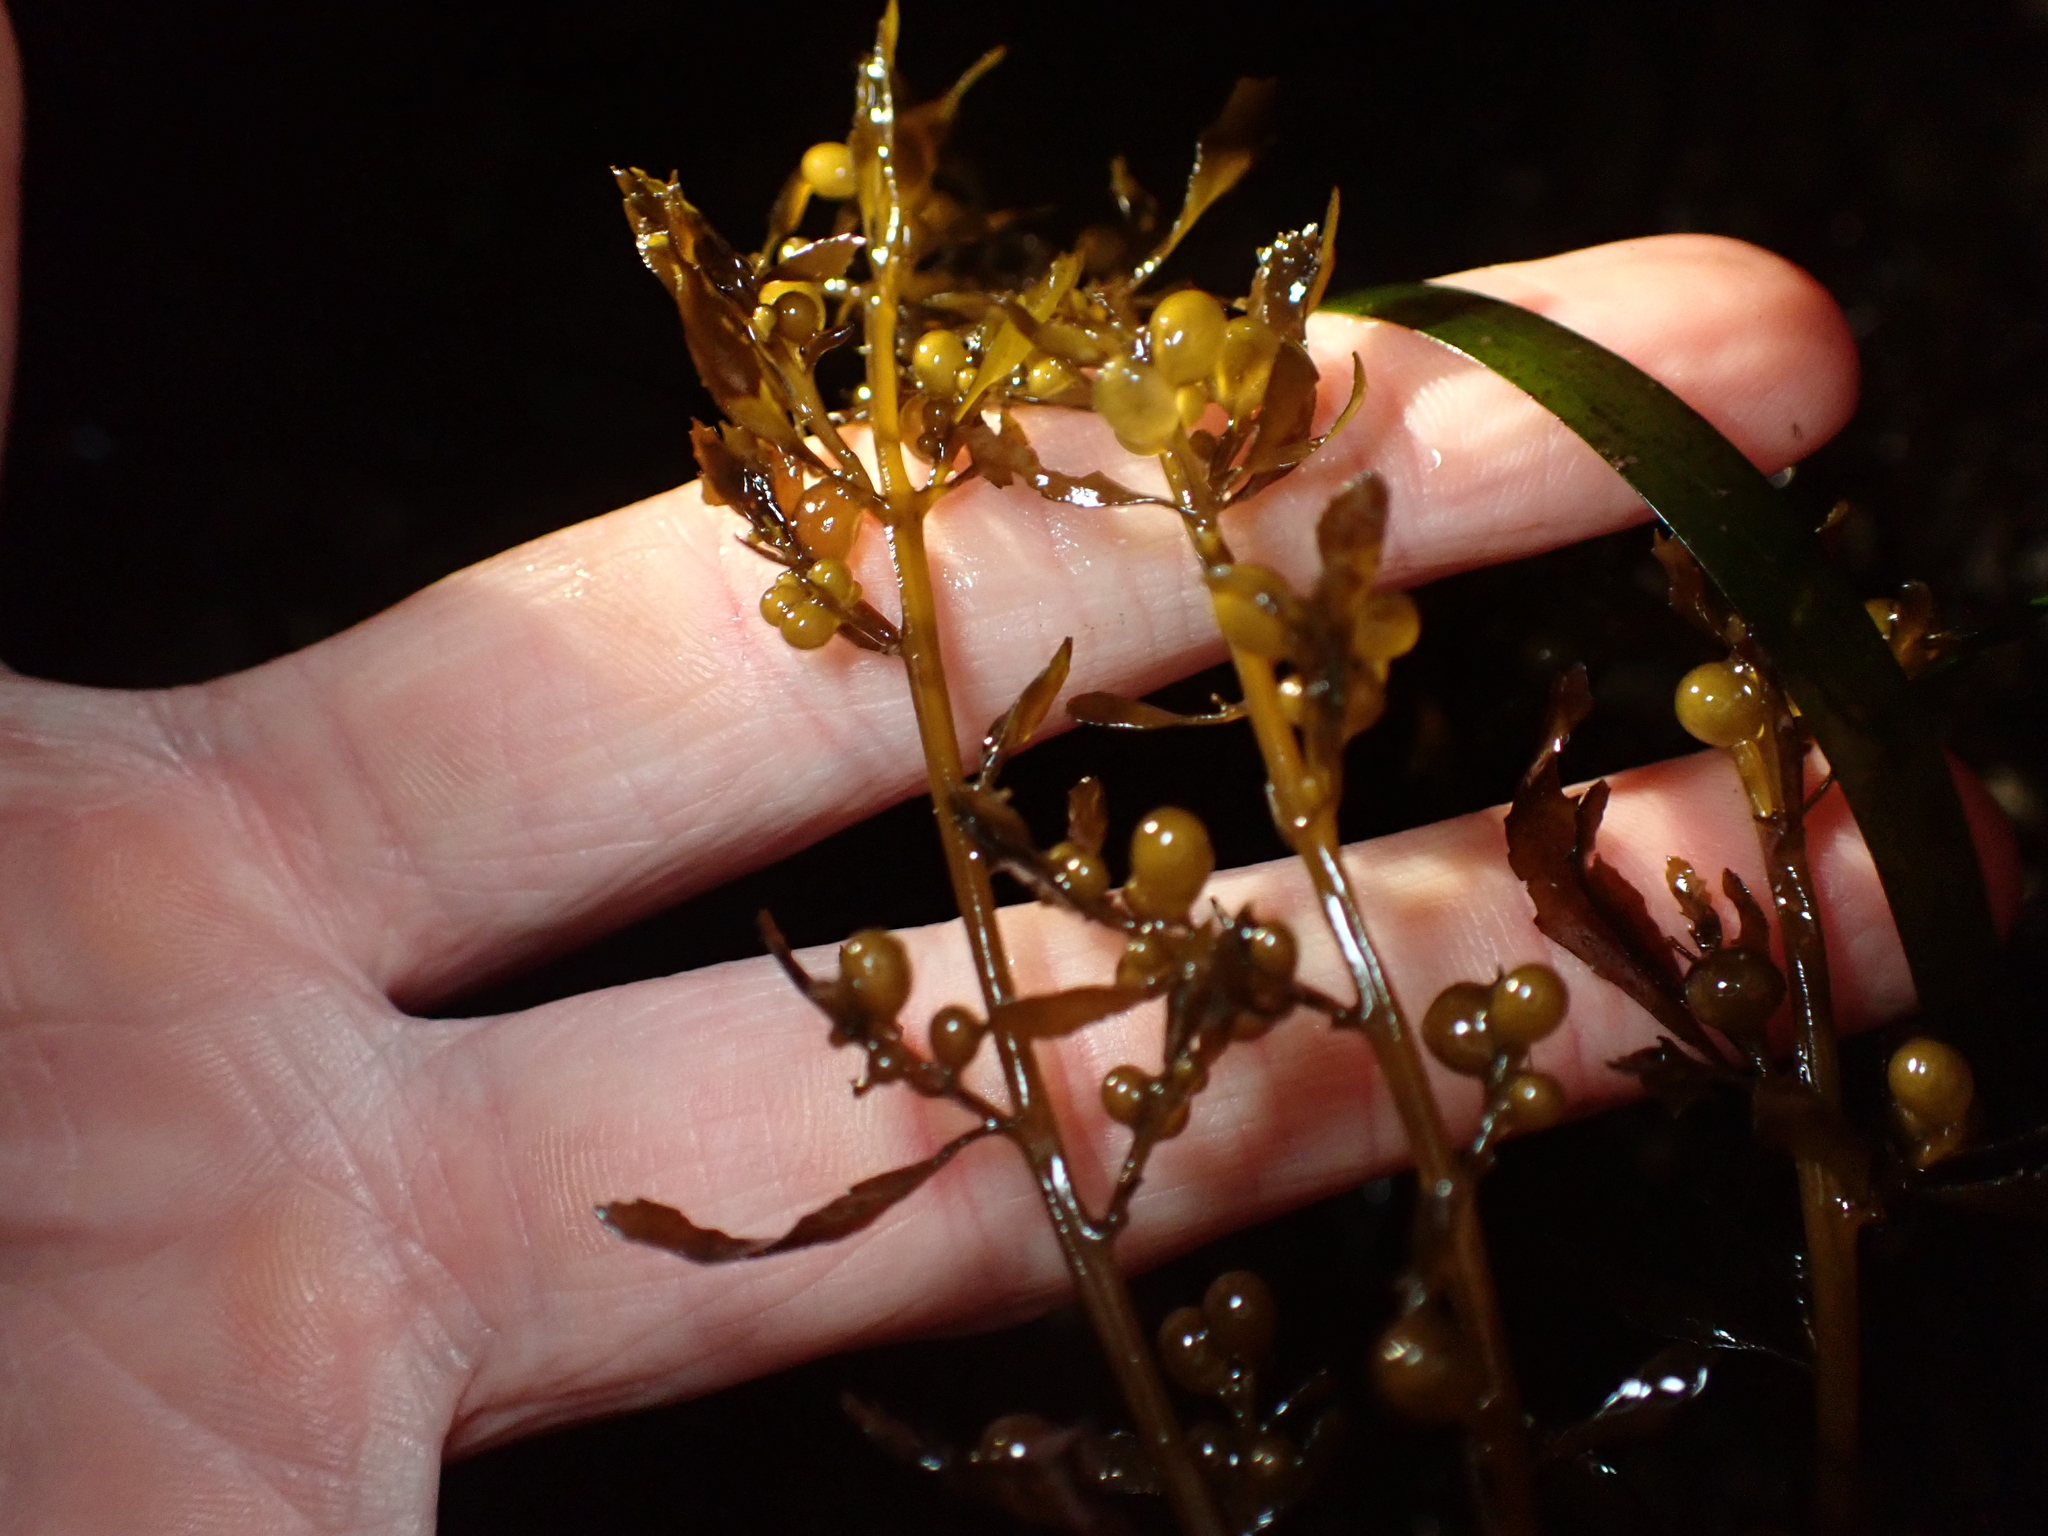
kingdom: Chromista
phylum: Ochrophyta
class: Phaeophyceae
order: Fucales
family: Sargassaceae
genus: Sargassum
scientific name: Sargassum muticum
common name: Japweed
